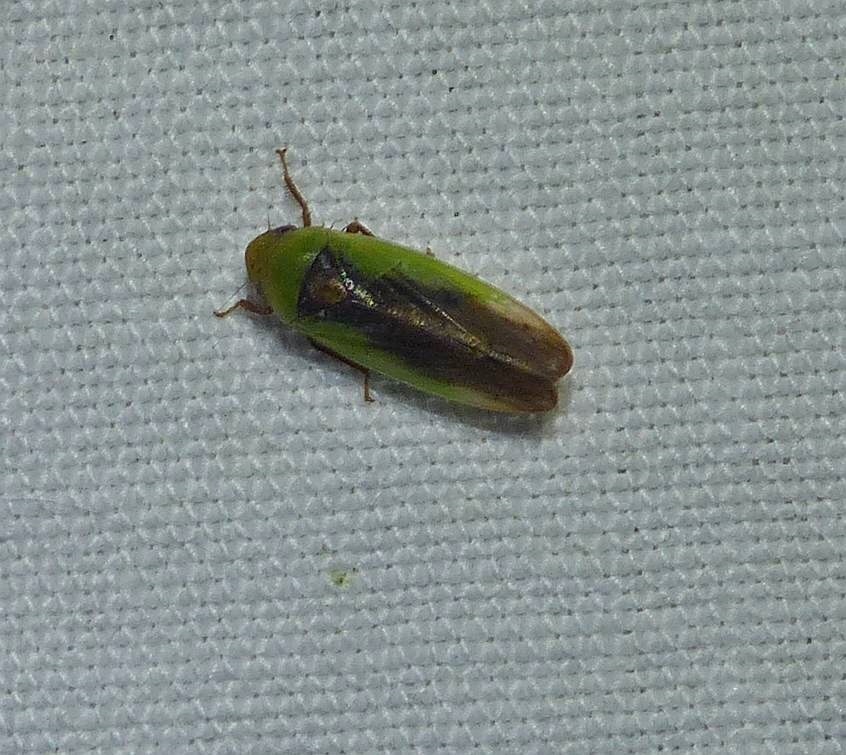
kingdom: Animalia
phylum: Arthropoda
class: Insecta
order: Hemiptera
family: Cicadellidae
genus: Ponana
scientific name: Ponana pectoralis
